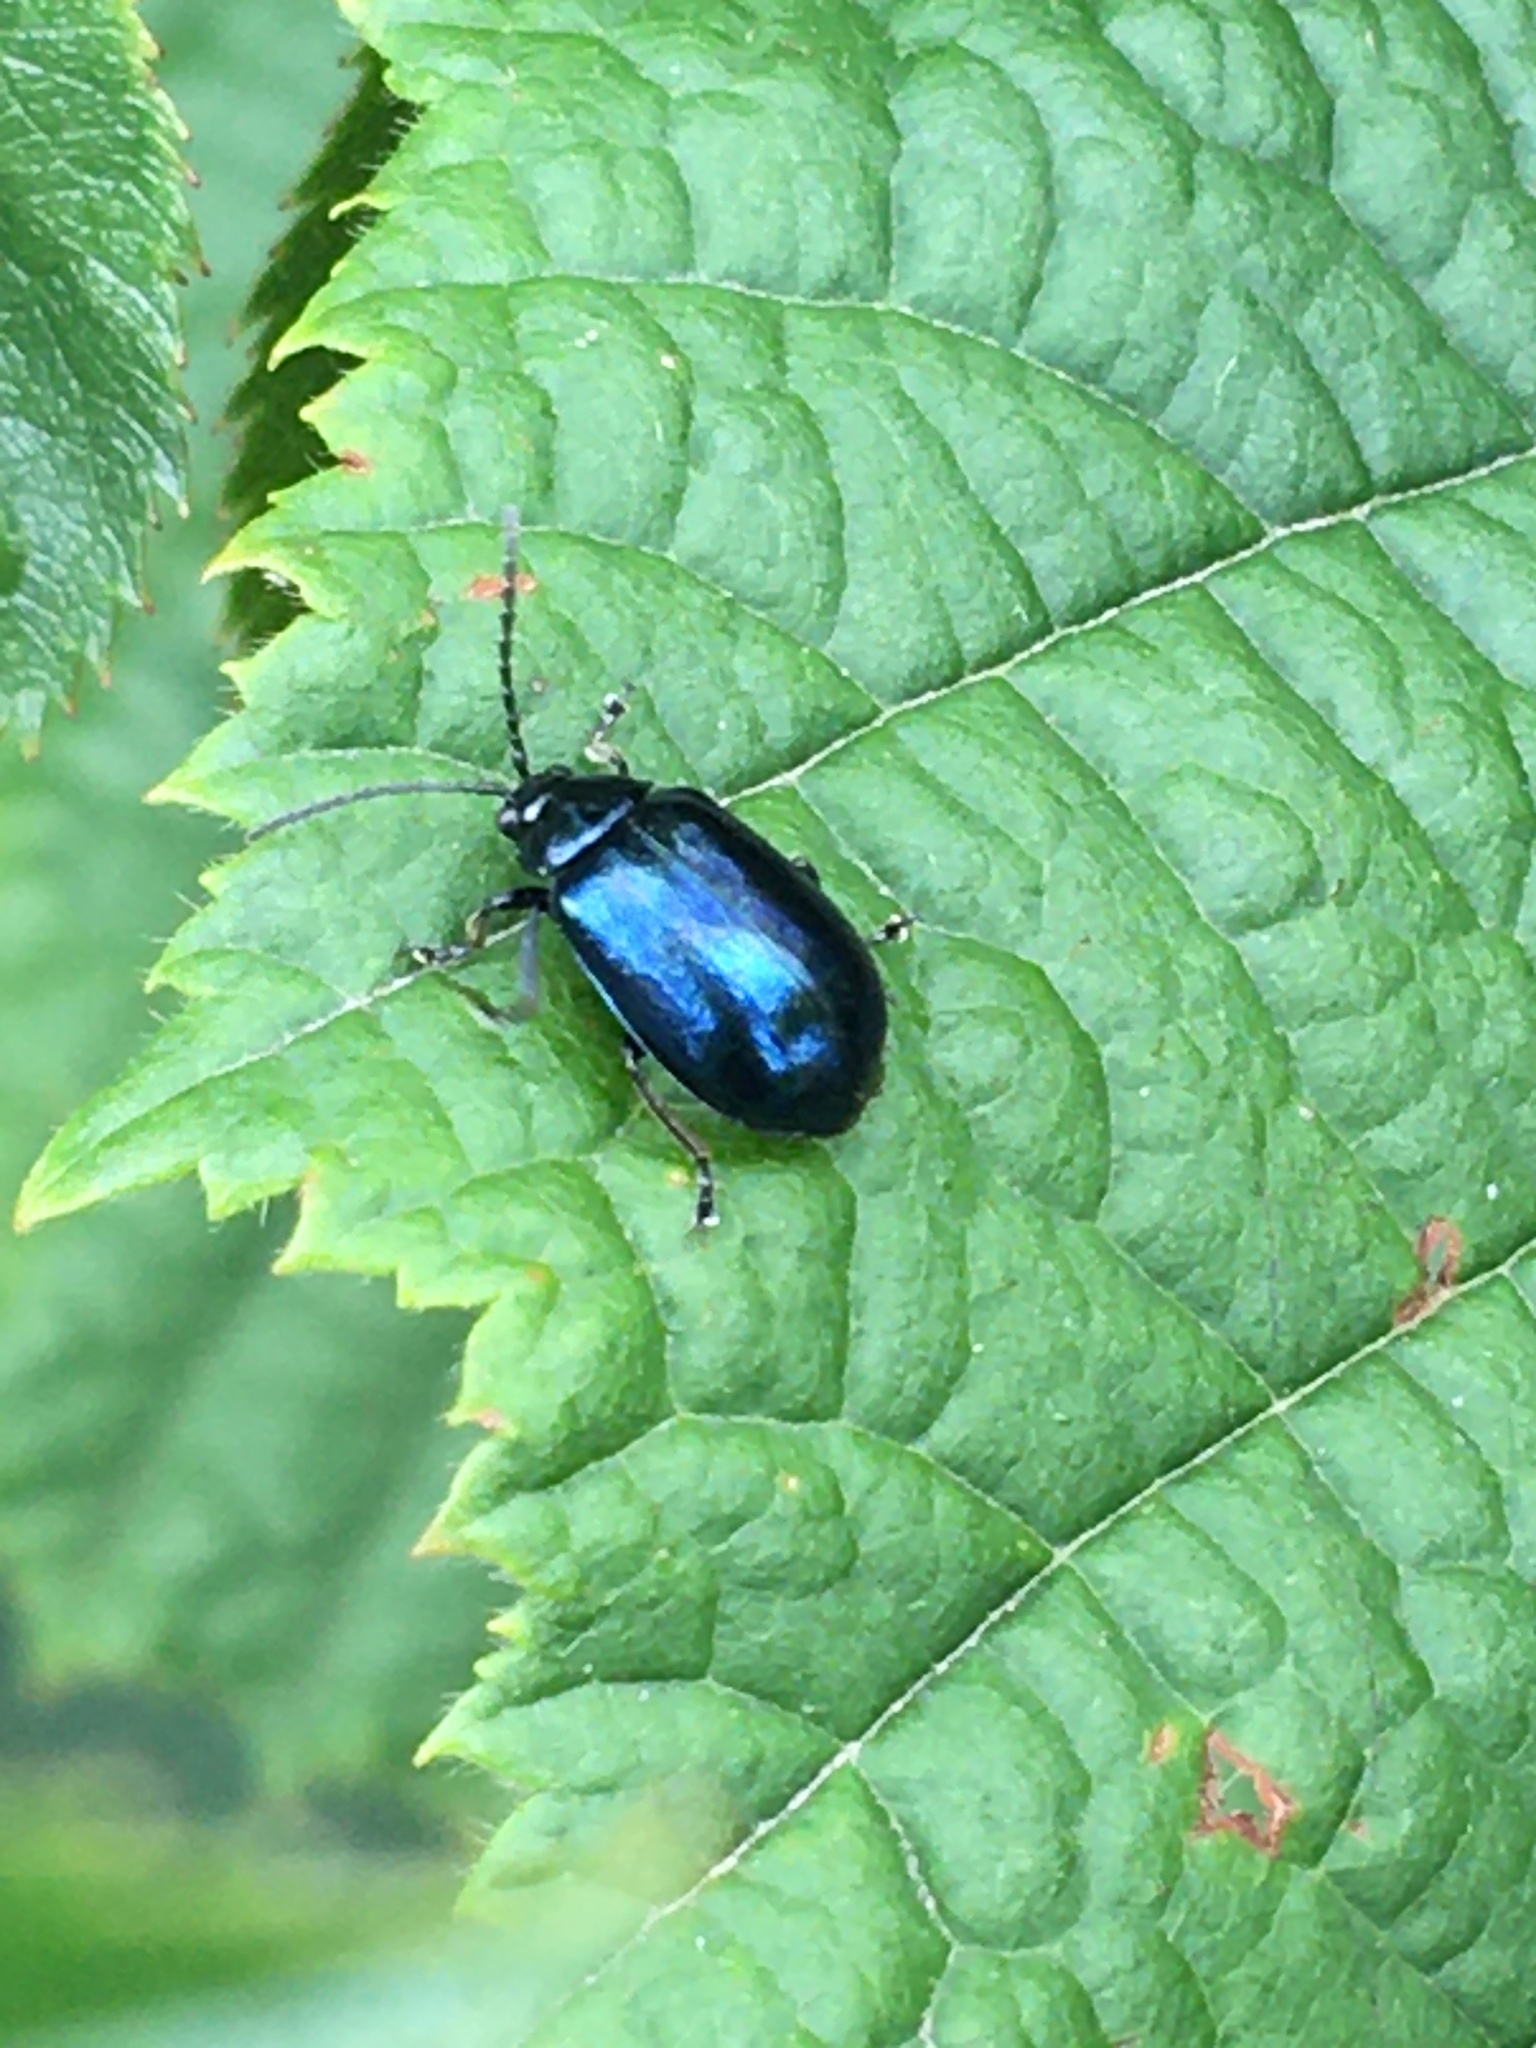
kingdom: Animalia
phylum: Arthropoda
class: Insecta
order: Coleoptera
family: Chrysomelidae
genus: Agelastica
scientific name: Agelastica alni
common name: Alder leaf beetle
